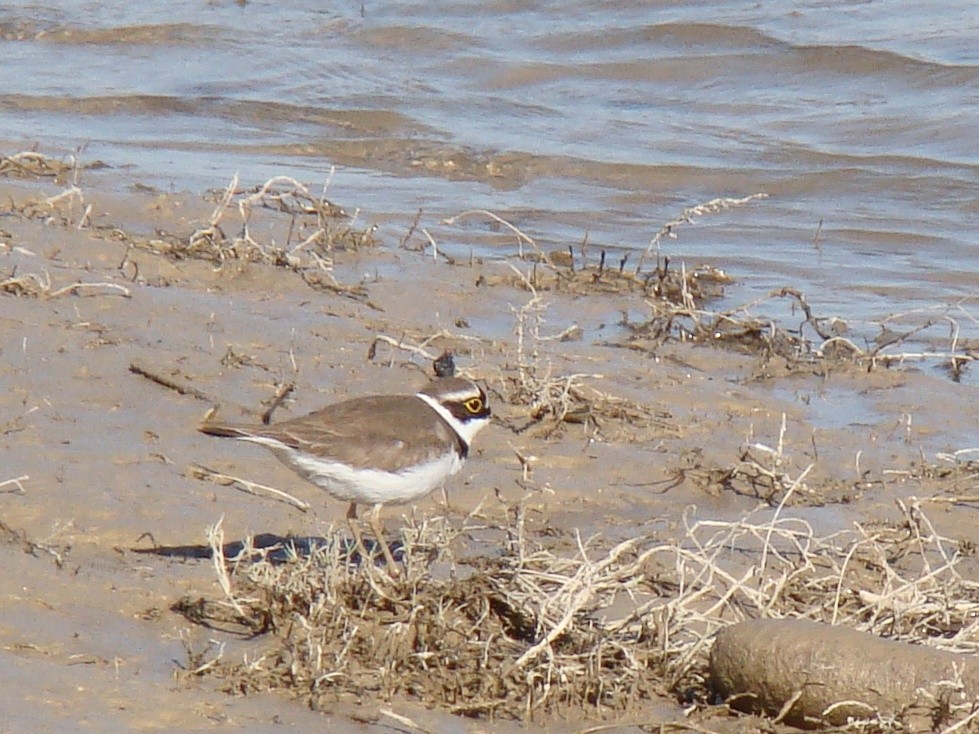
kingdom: Animalia
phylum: Chordata
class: Aves
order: Charadriiformes
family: Charadriidae
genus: Charadrius
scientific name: Charadrius dubius
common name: Little ringed plover
